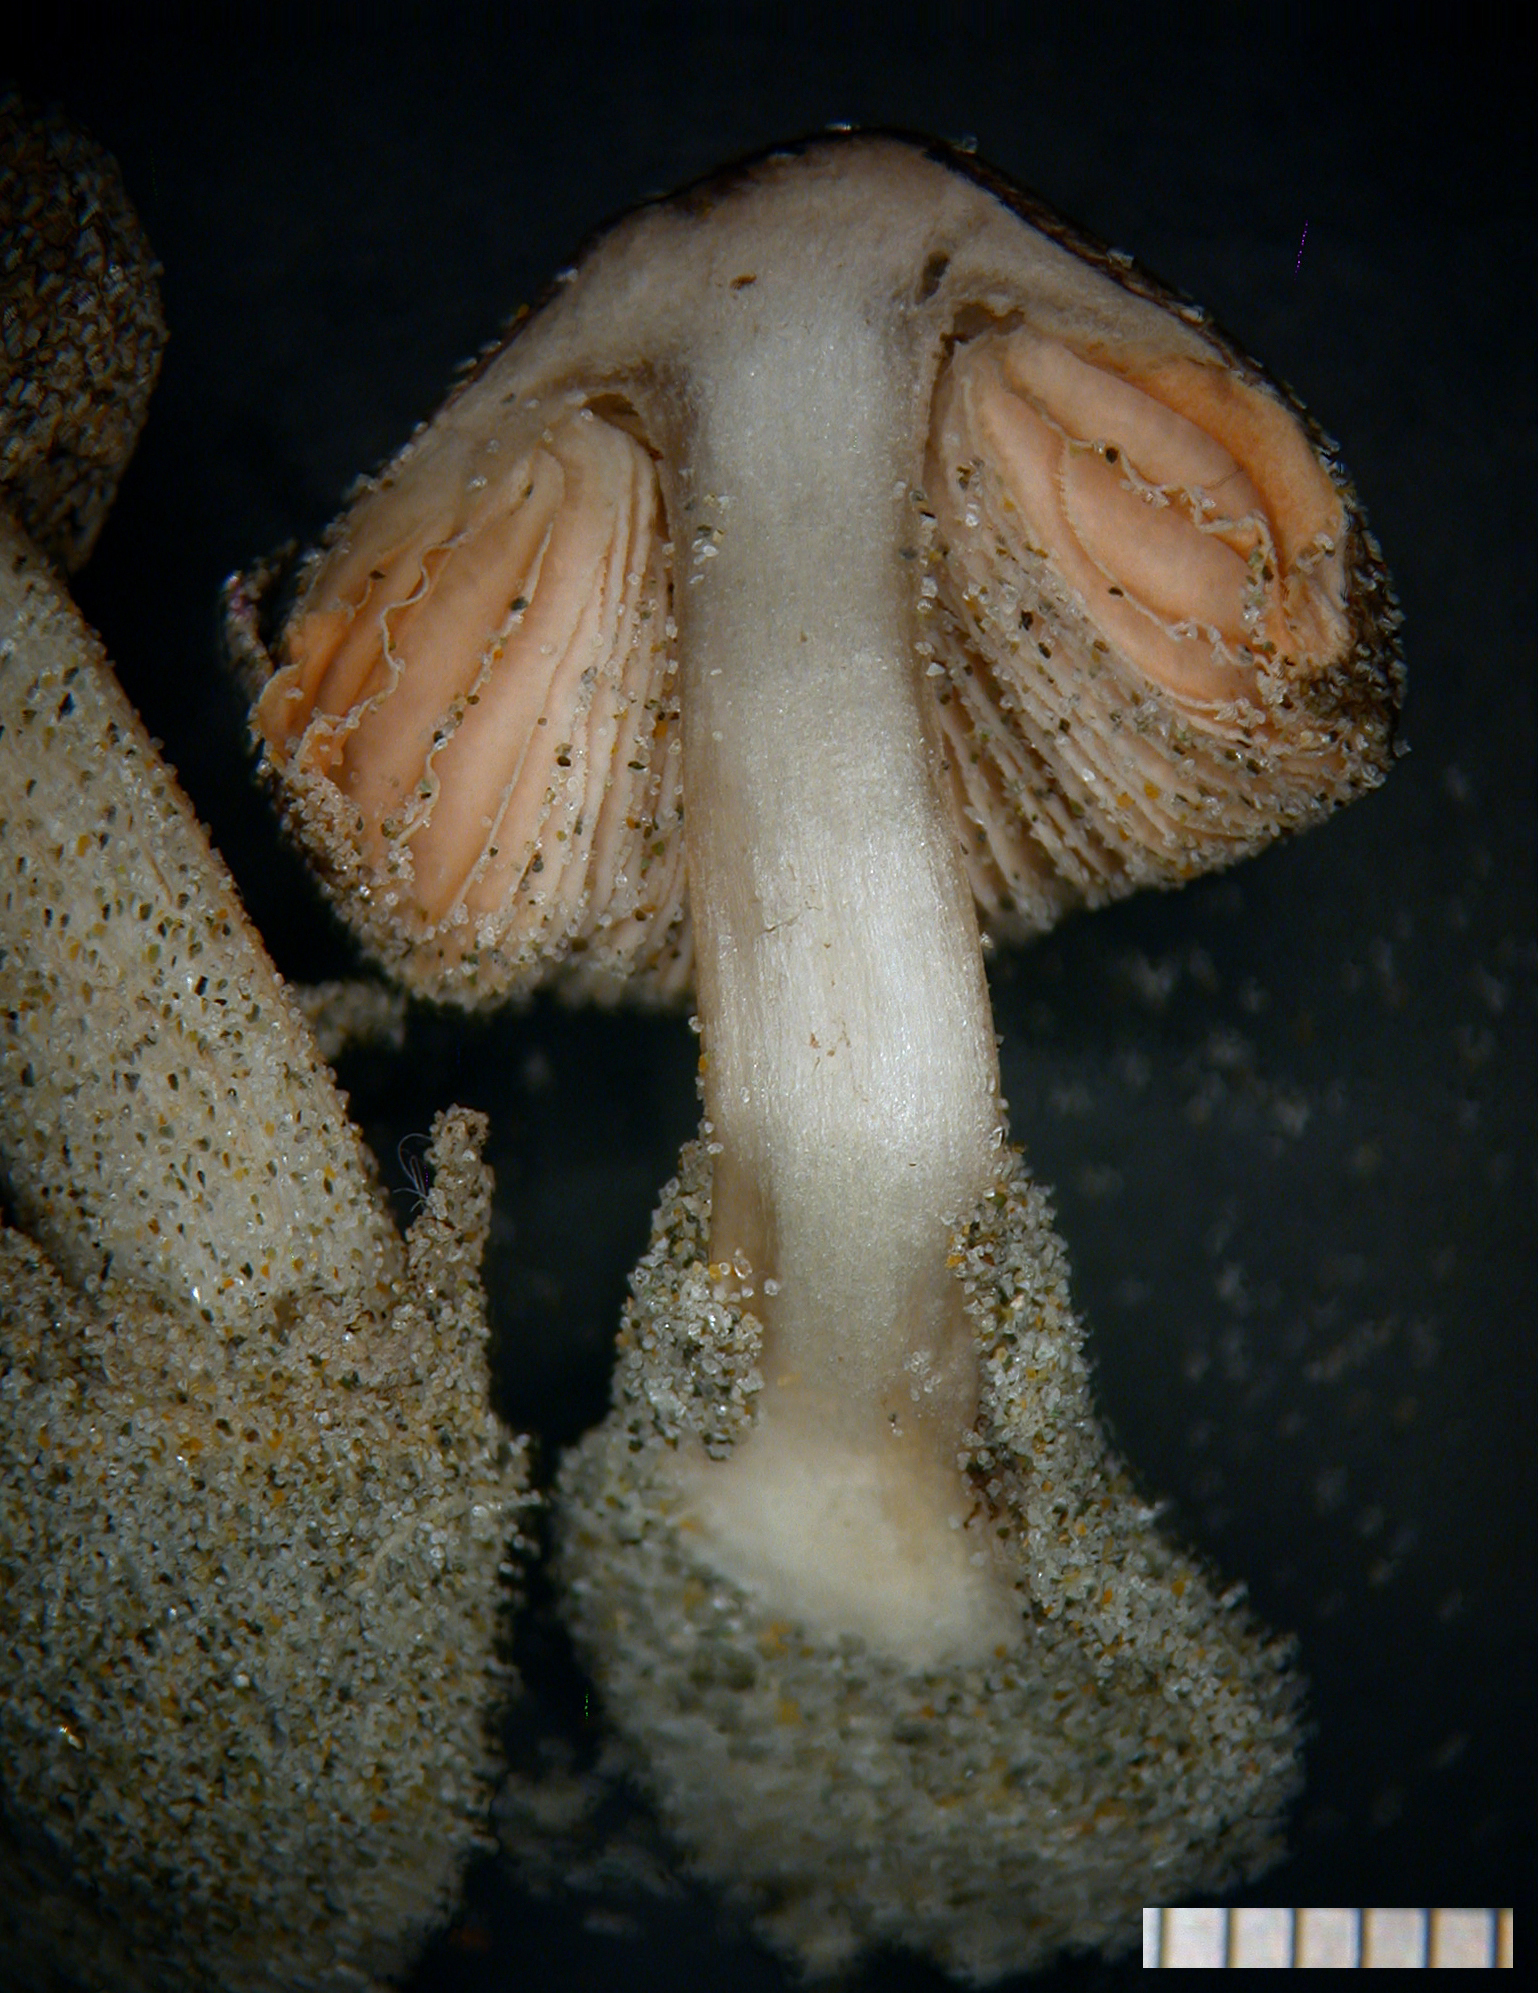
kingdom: Fungi
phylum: Basidiomycota
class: Agaricomycetes
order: Agaricales
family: Pluteaceae
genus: Volvariella
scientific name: Volvariella dunensis
